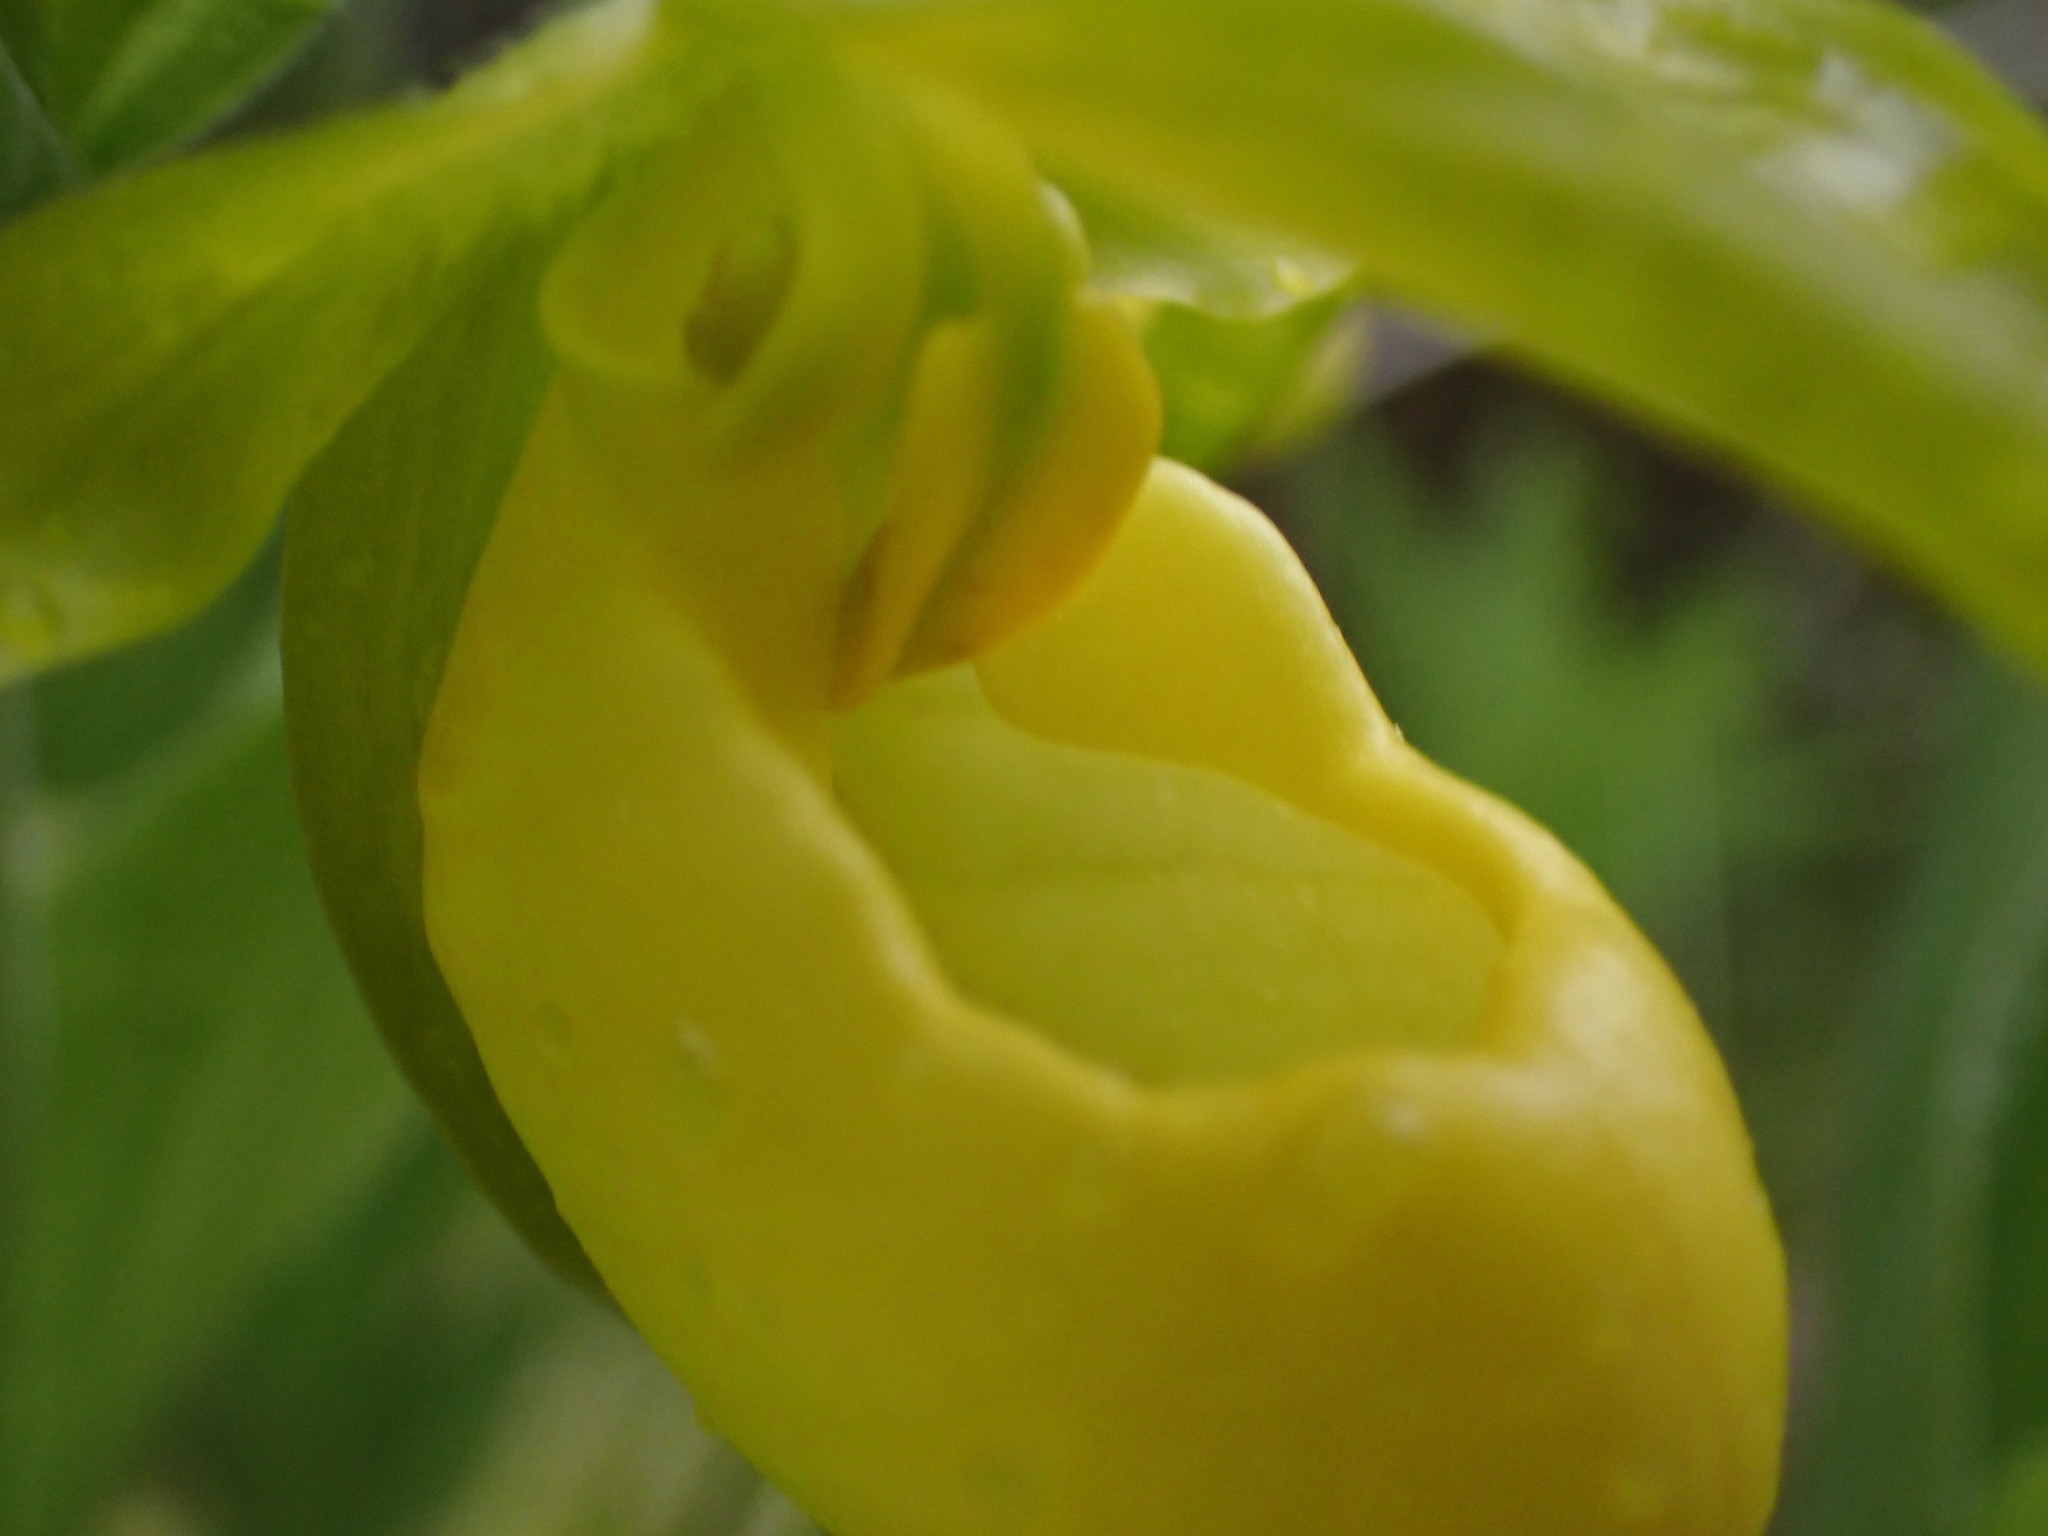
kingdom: Plantae
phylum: Tracheophyta
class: Liliopsida
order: Asparagales
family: Orchidaceae
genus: Cypripedium
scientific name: Cypripedium parviflorum
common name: American yellow lady's-slipper
